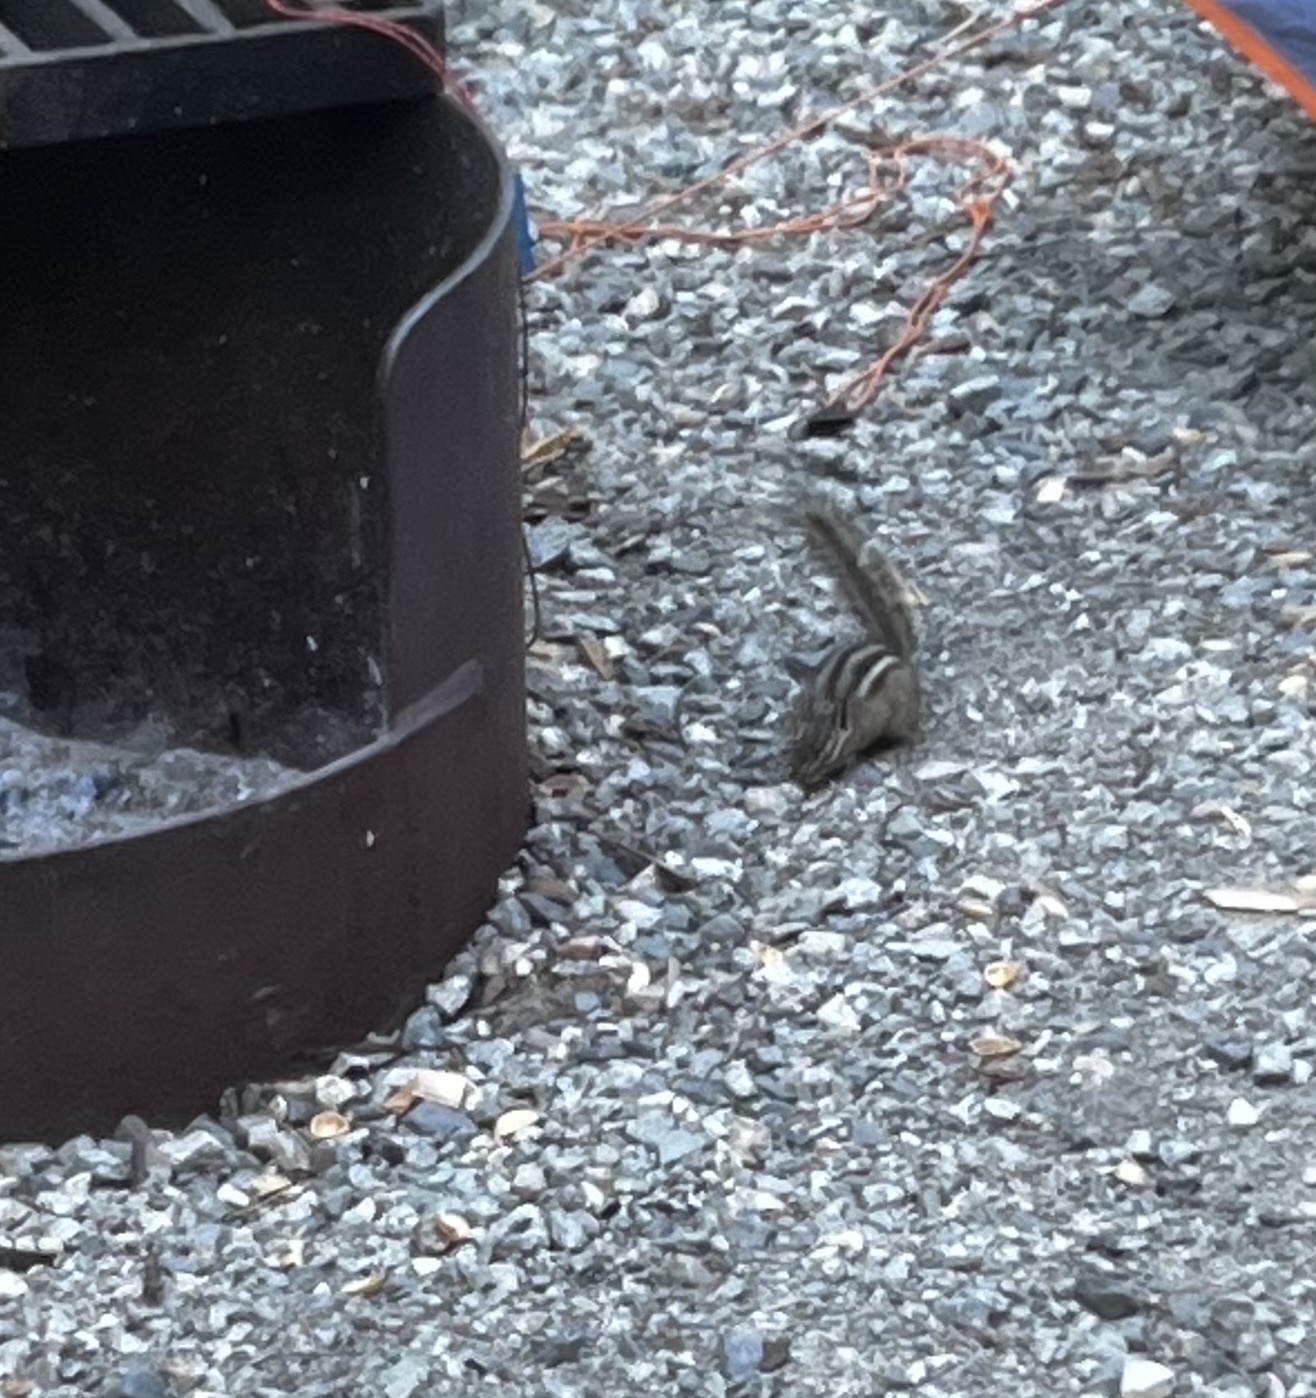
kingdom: Animalia
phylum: Chordata
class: Mammalia
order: Rodentia
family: Sciuridae
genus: Tamias
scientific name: Tamias amoenus
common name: Yellow-pine chipmunk
